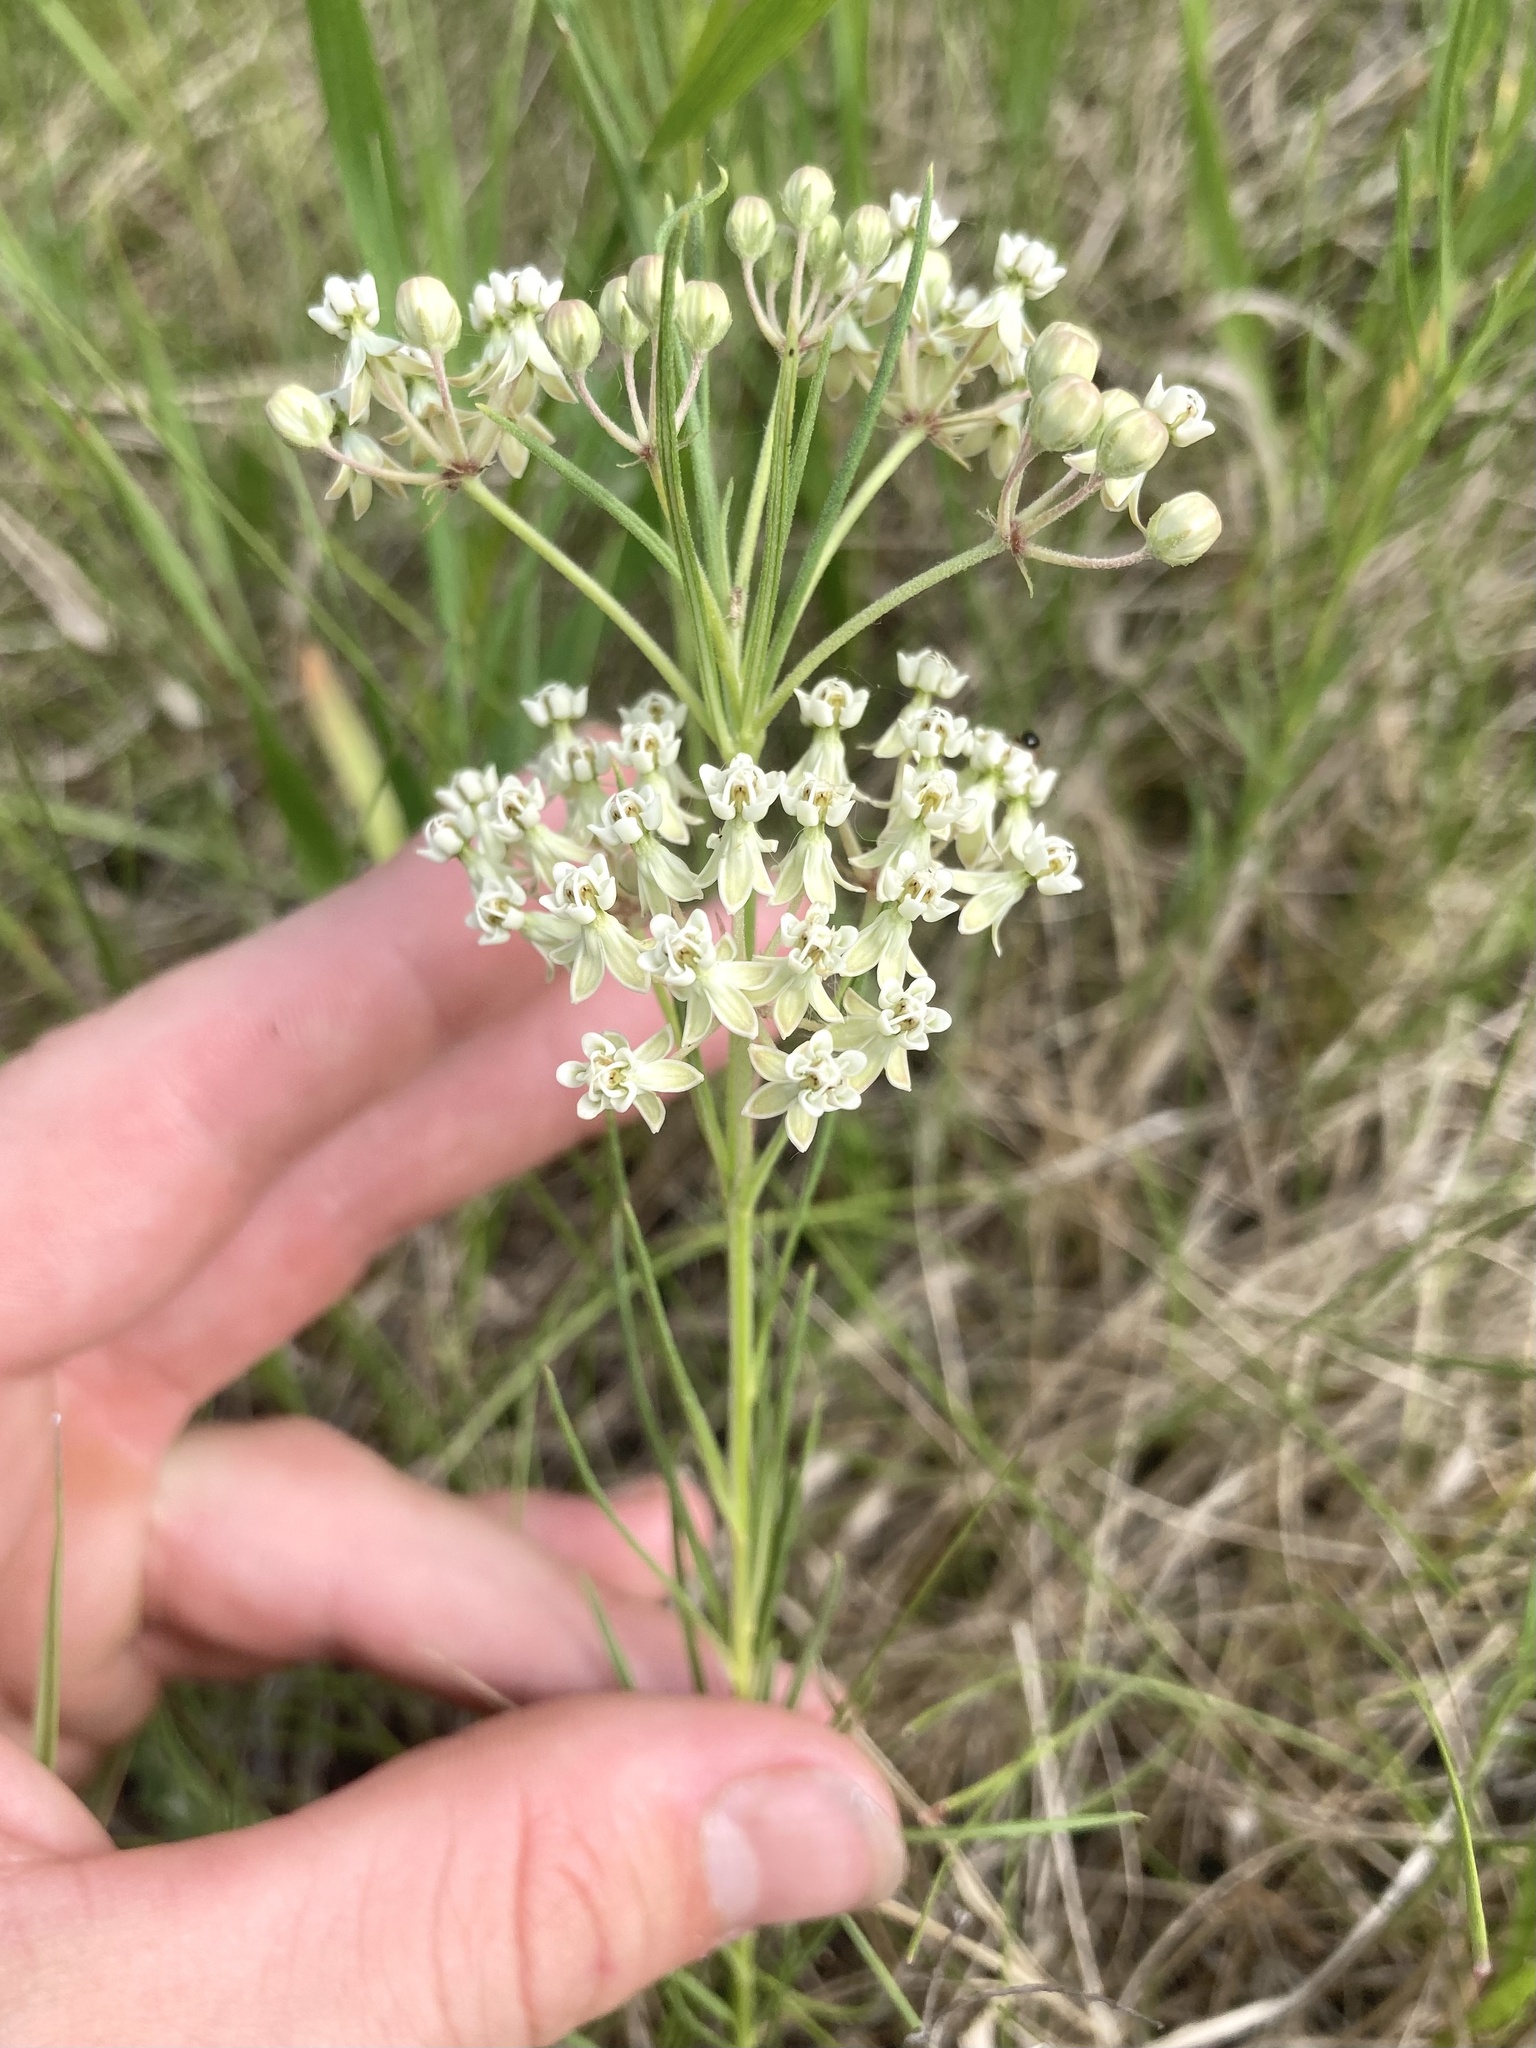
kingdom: Plantae
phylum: Tracheophyta
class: Magnoliopsida
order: Gentianales
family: Apocynaceae
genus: Asclepias
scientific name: Asclepias verticillata
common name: Eastern whorled milkweed
